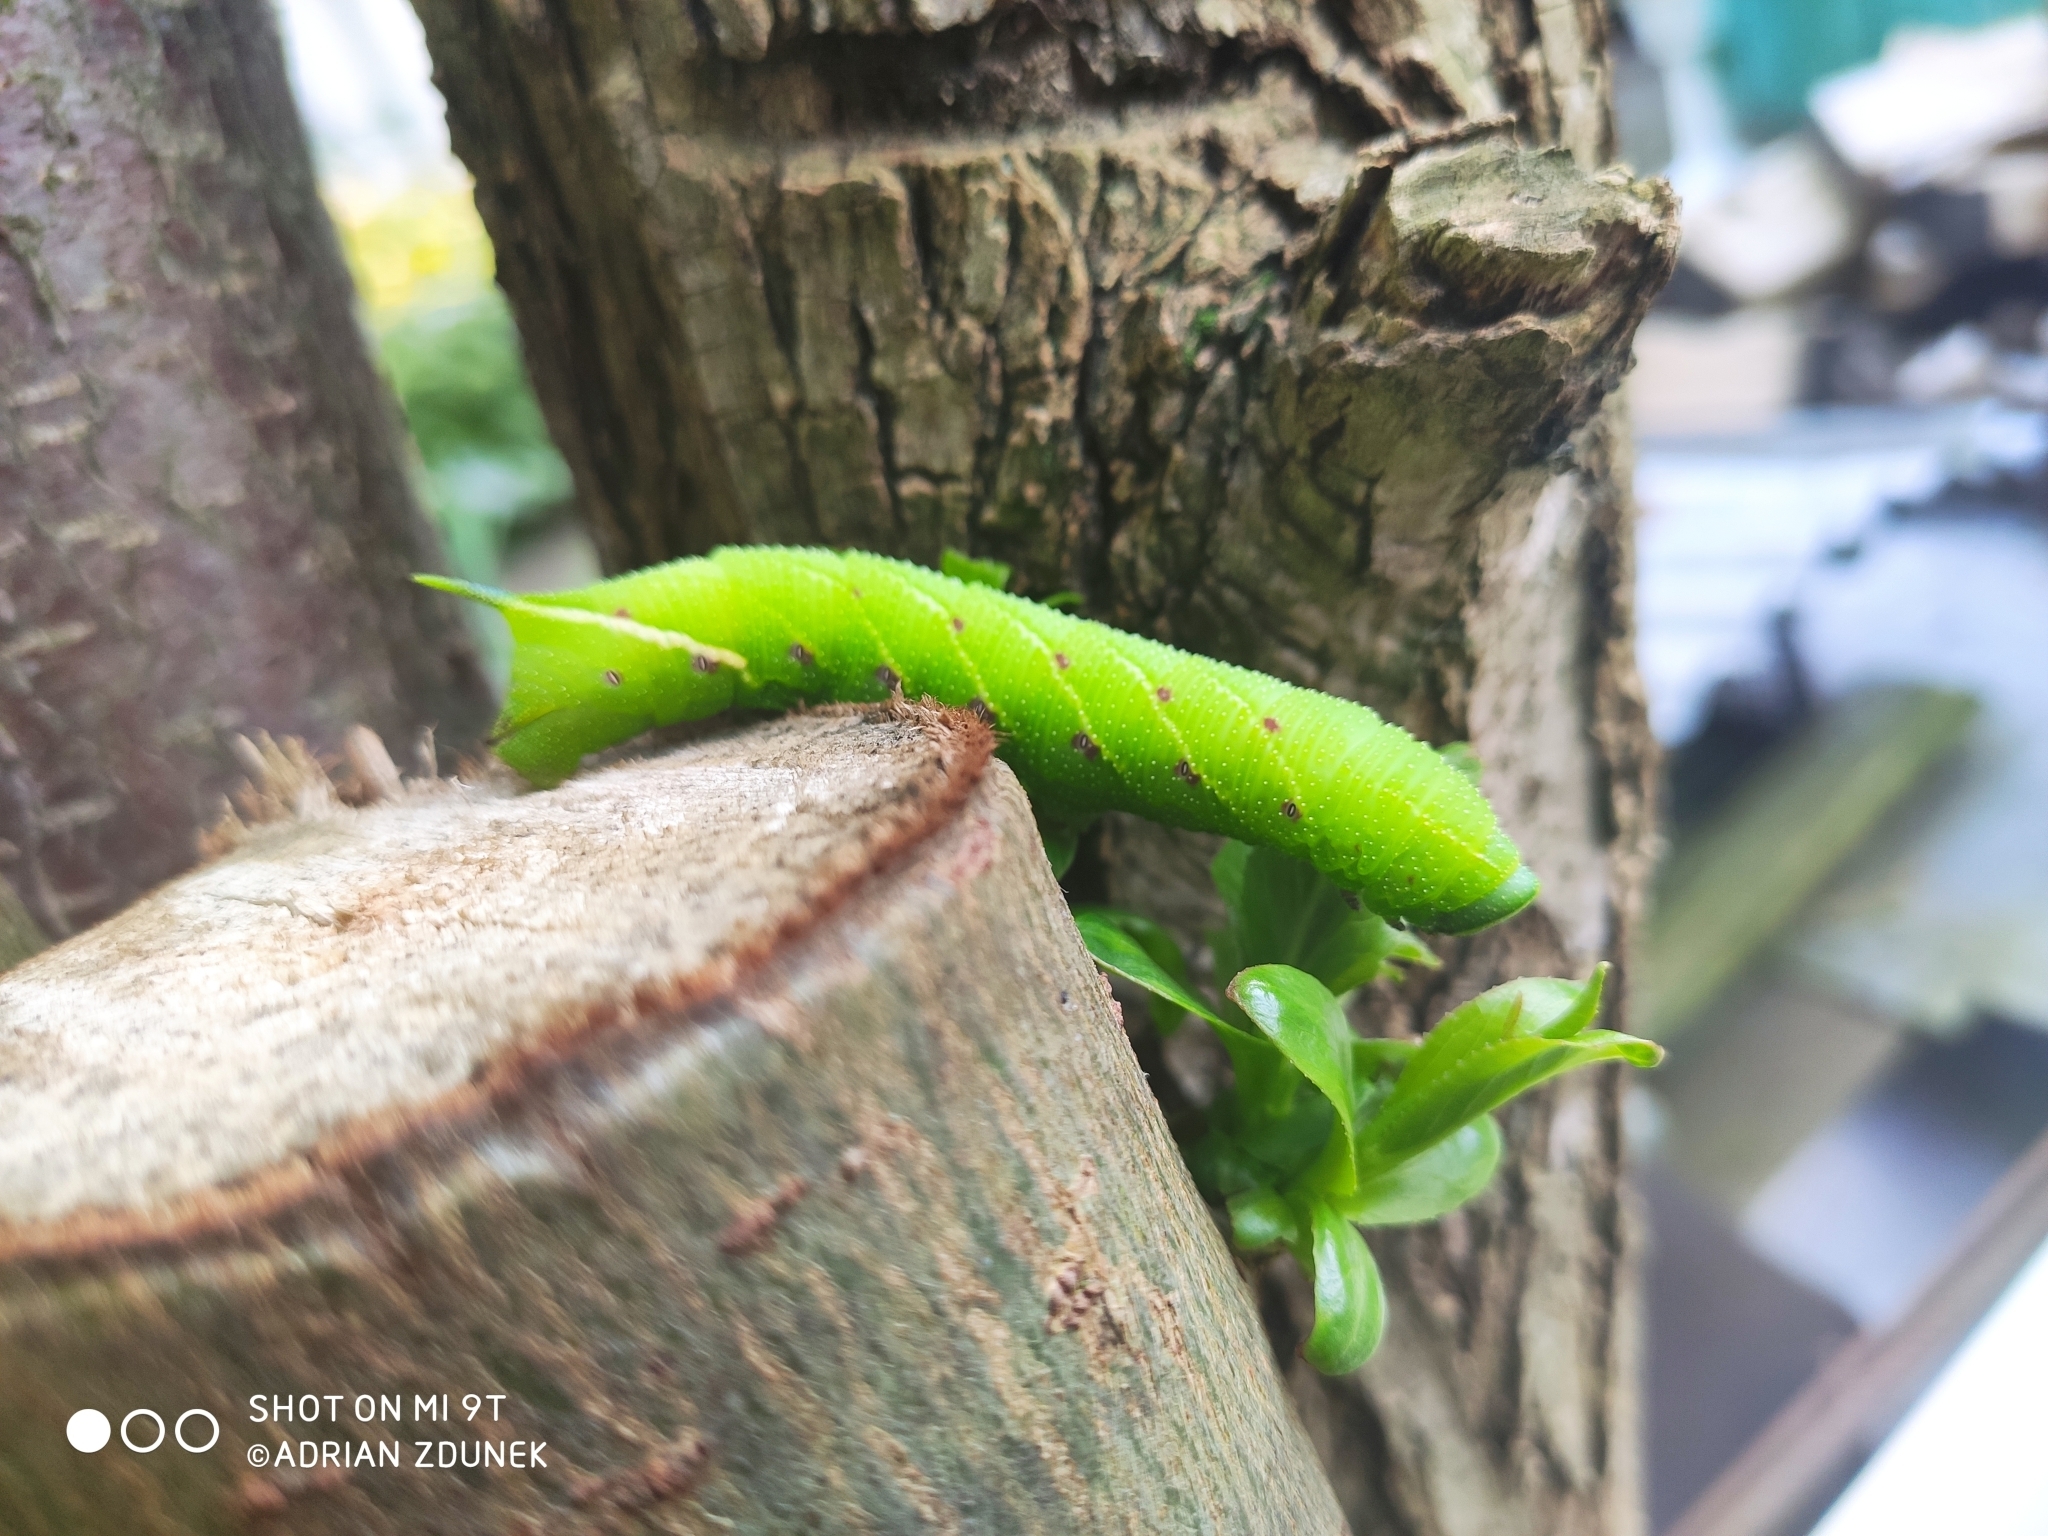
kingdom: Animalia
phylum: Arthropoda
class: Insecta
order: Lepidoptera
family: Sphingidae
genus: Smerinthus
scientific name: Smerinthus ocellata
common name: Eyed hawk-moth
